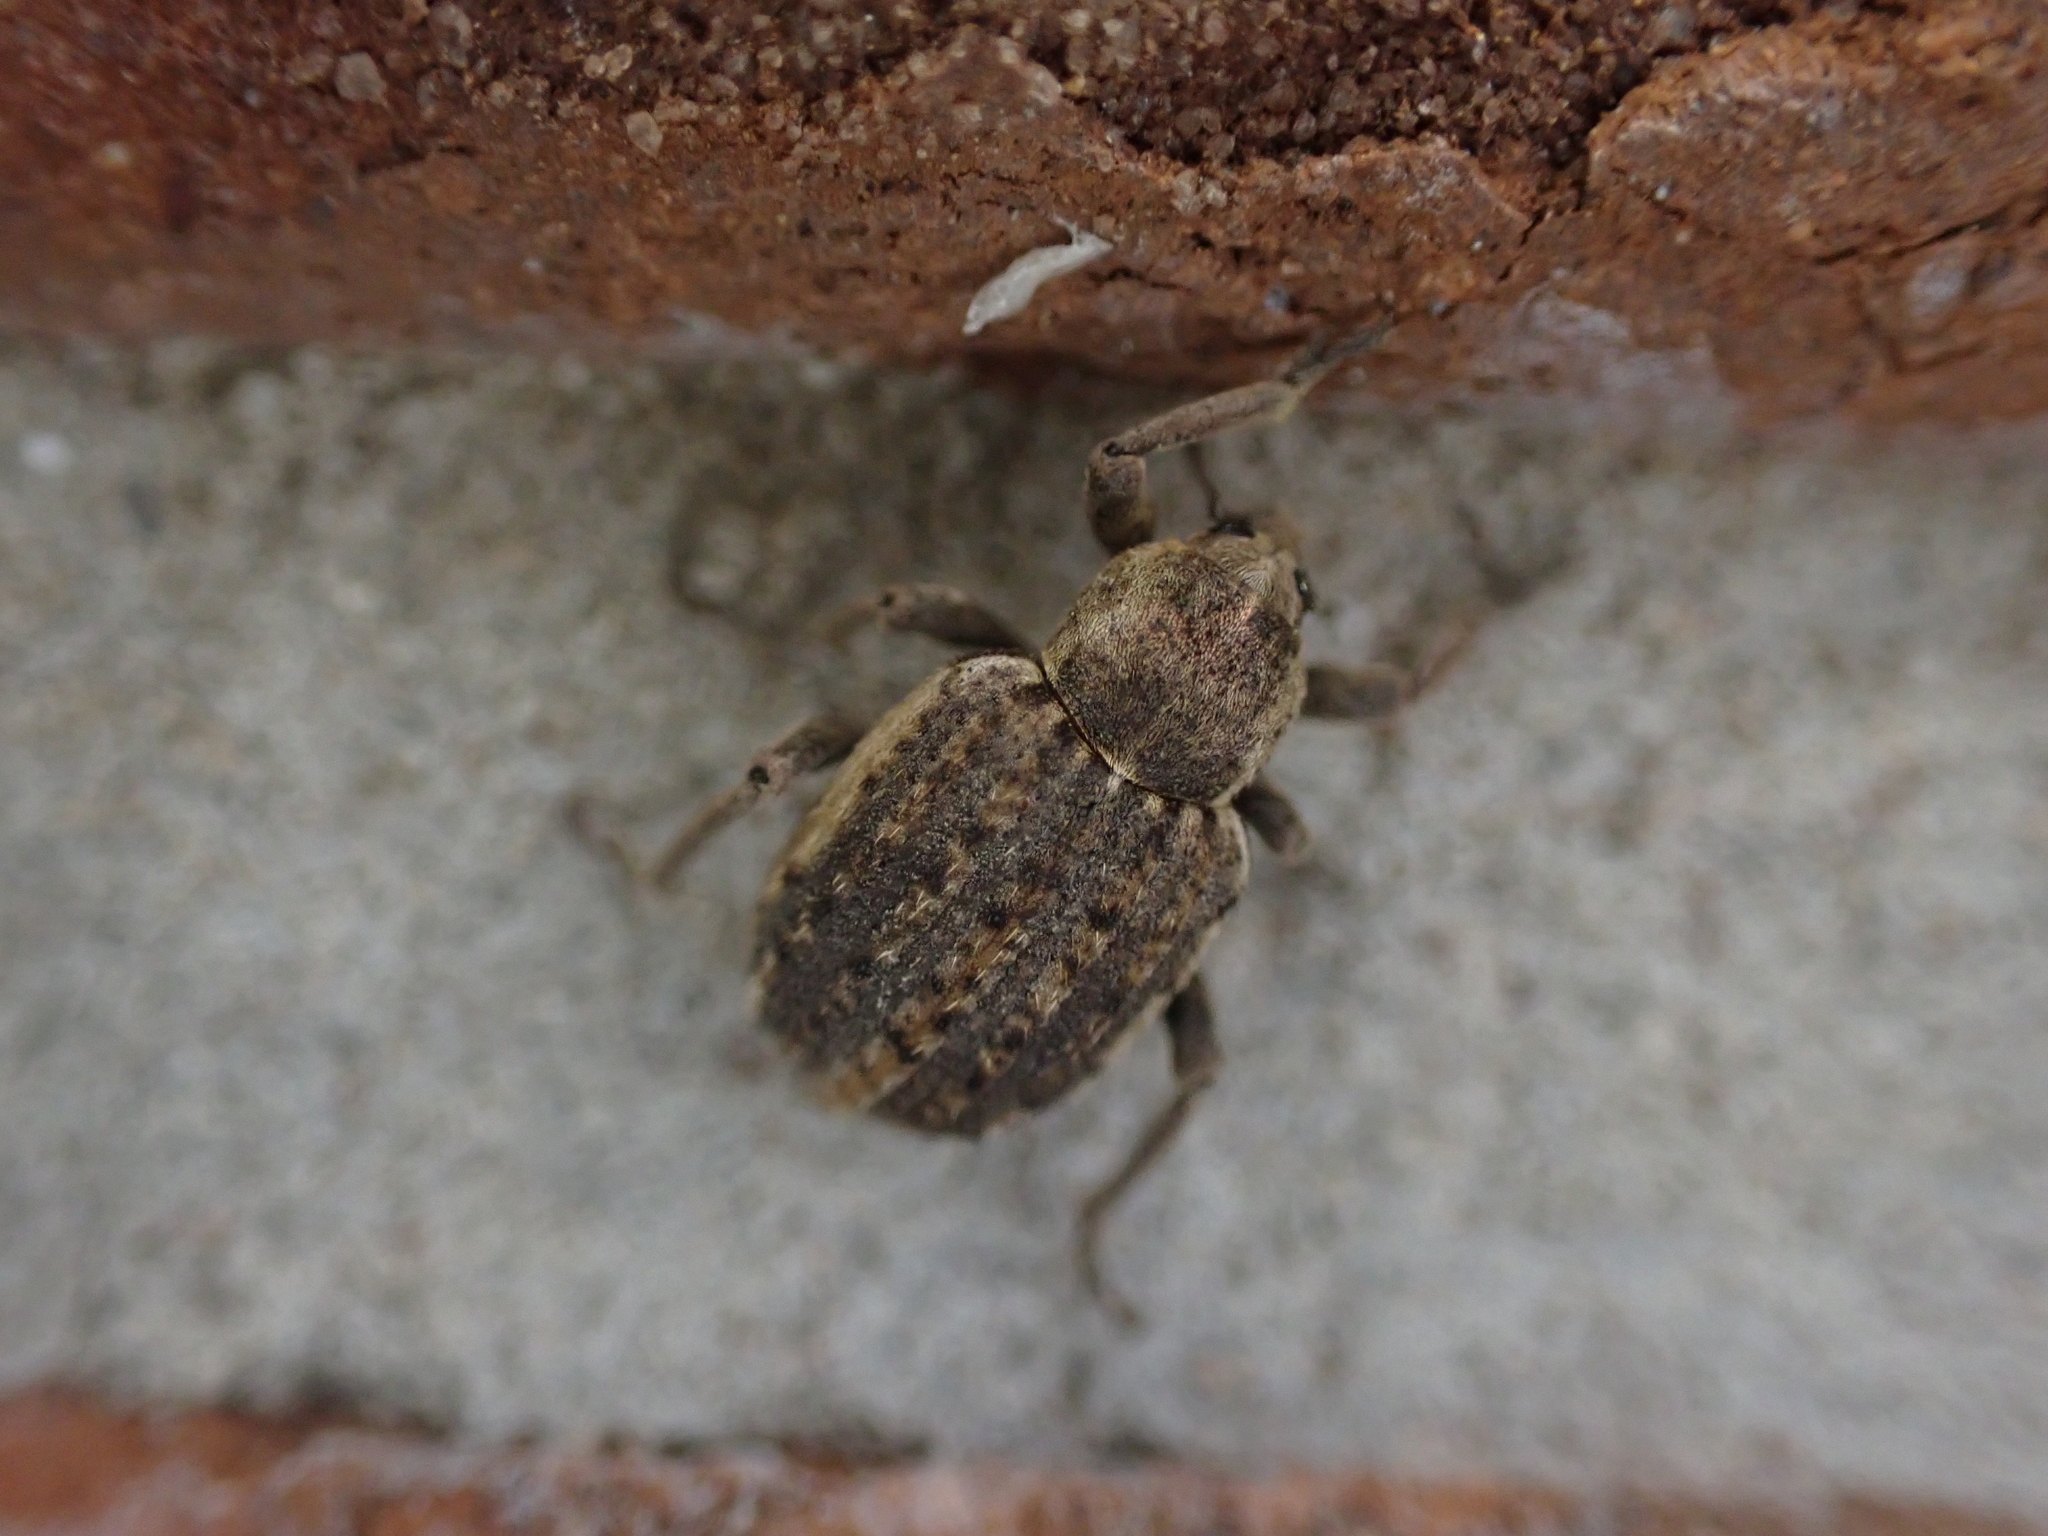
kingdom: Animalia
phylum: Arthropoda
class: Insecta
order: Coleoptera
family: Curculionidae
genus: Brachypera
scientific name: Brachypera zoilus
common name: Clover leaf weevil
